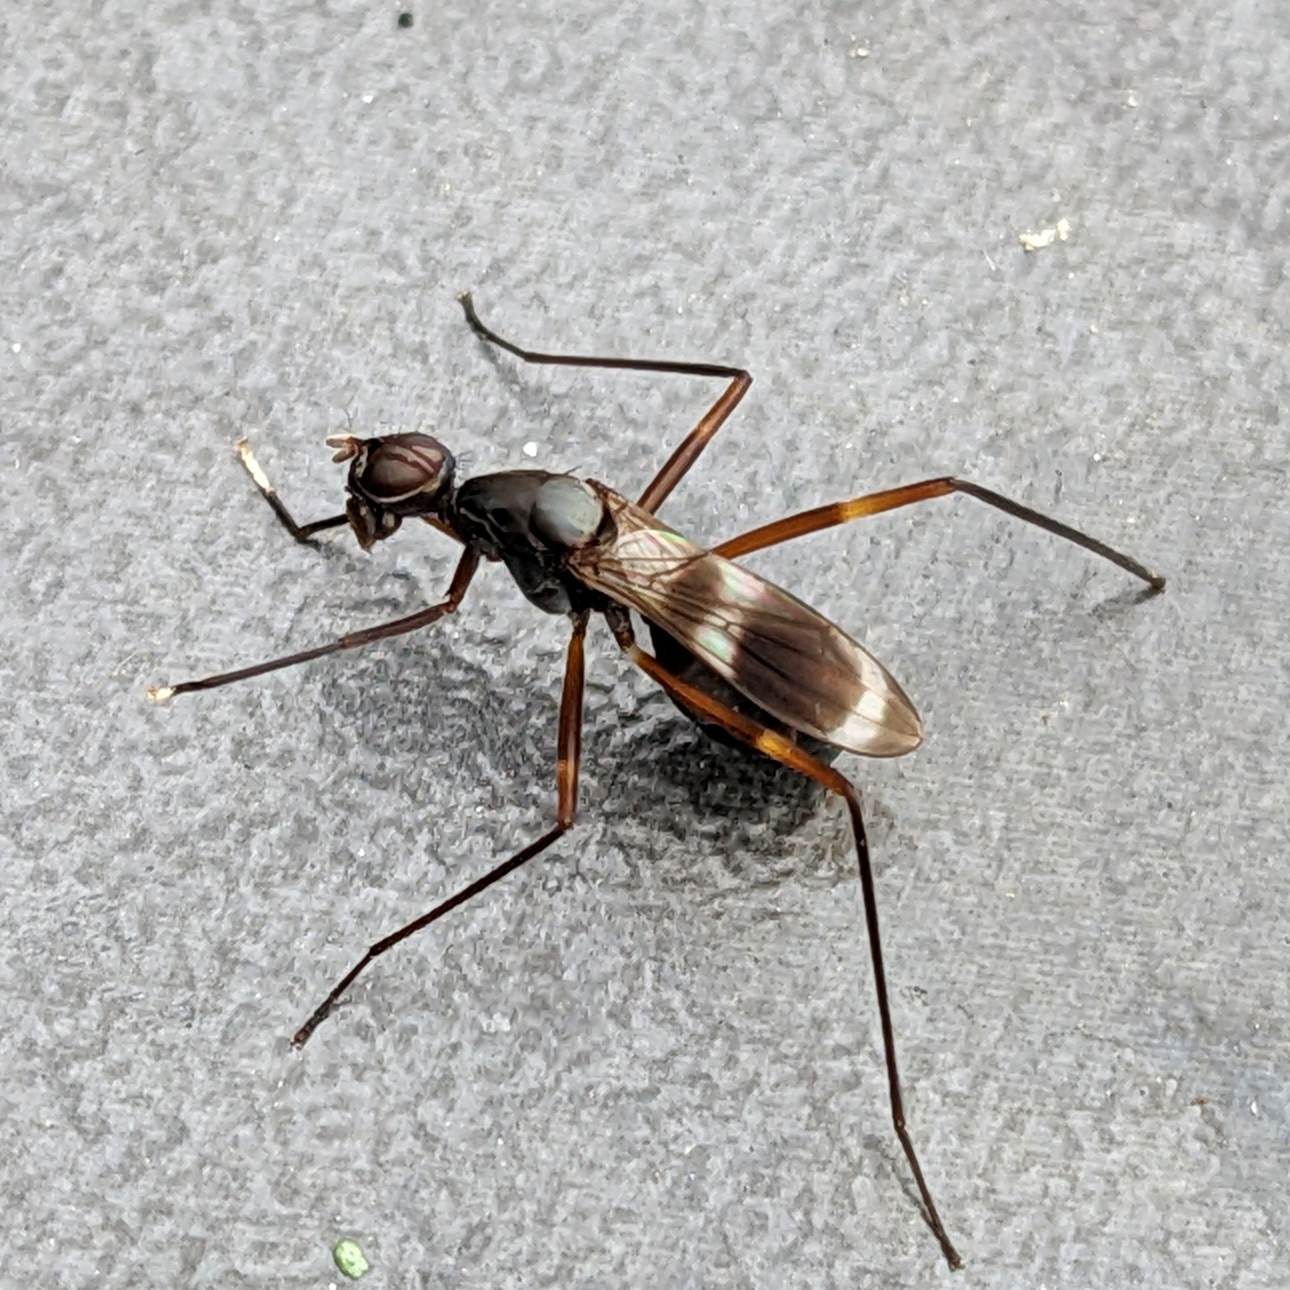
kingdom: Animalia
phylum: Arthropoda
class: Insecta
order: Diptera
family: Micropezidae
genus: Taeniaptera
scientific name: Taeniaptera trivittata
